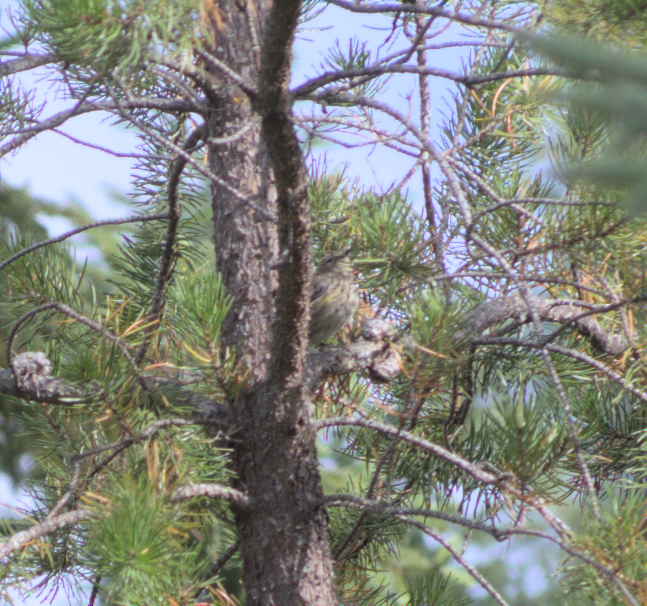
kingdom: Animalia
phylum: Chordata
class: Aves
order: Passeriformes
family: Parulidae
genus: Setophaga
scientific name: Setophaga coronata
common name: Myrtle warbler
